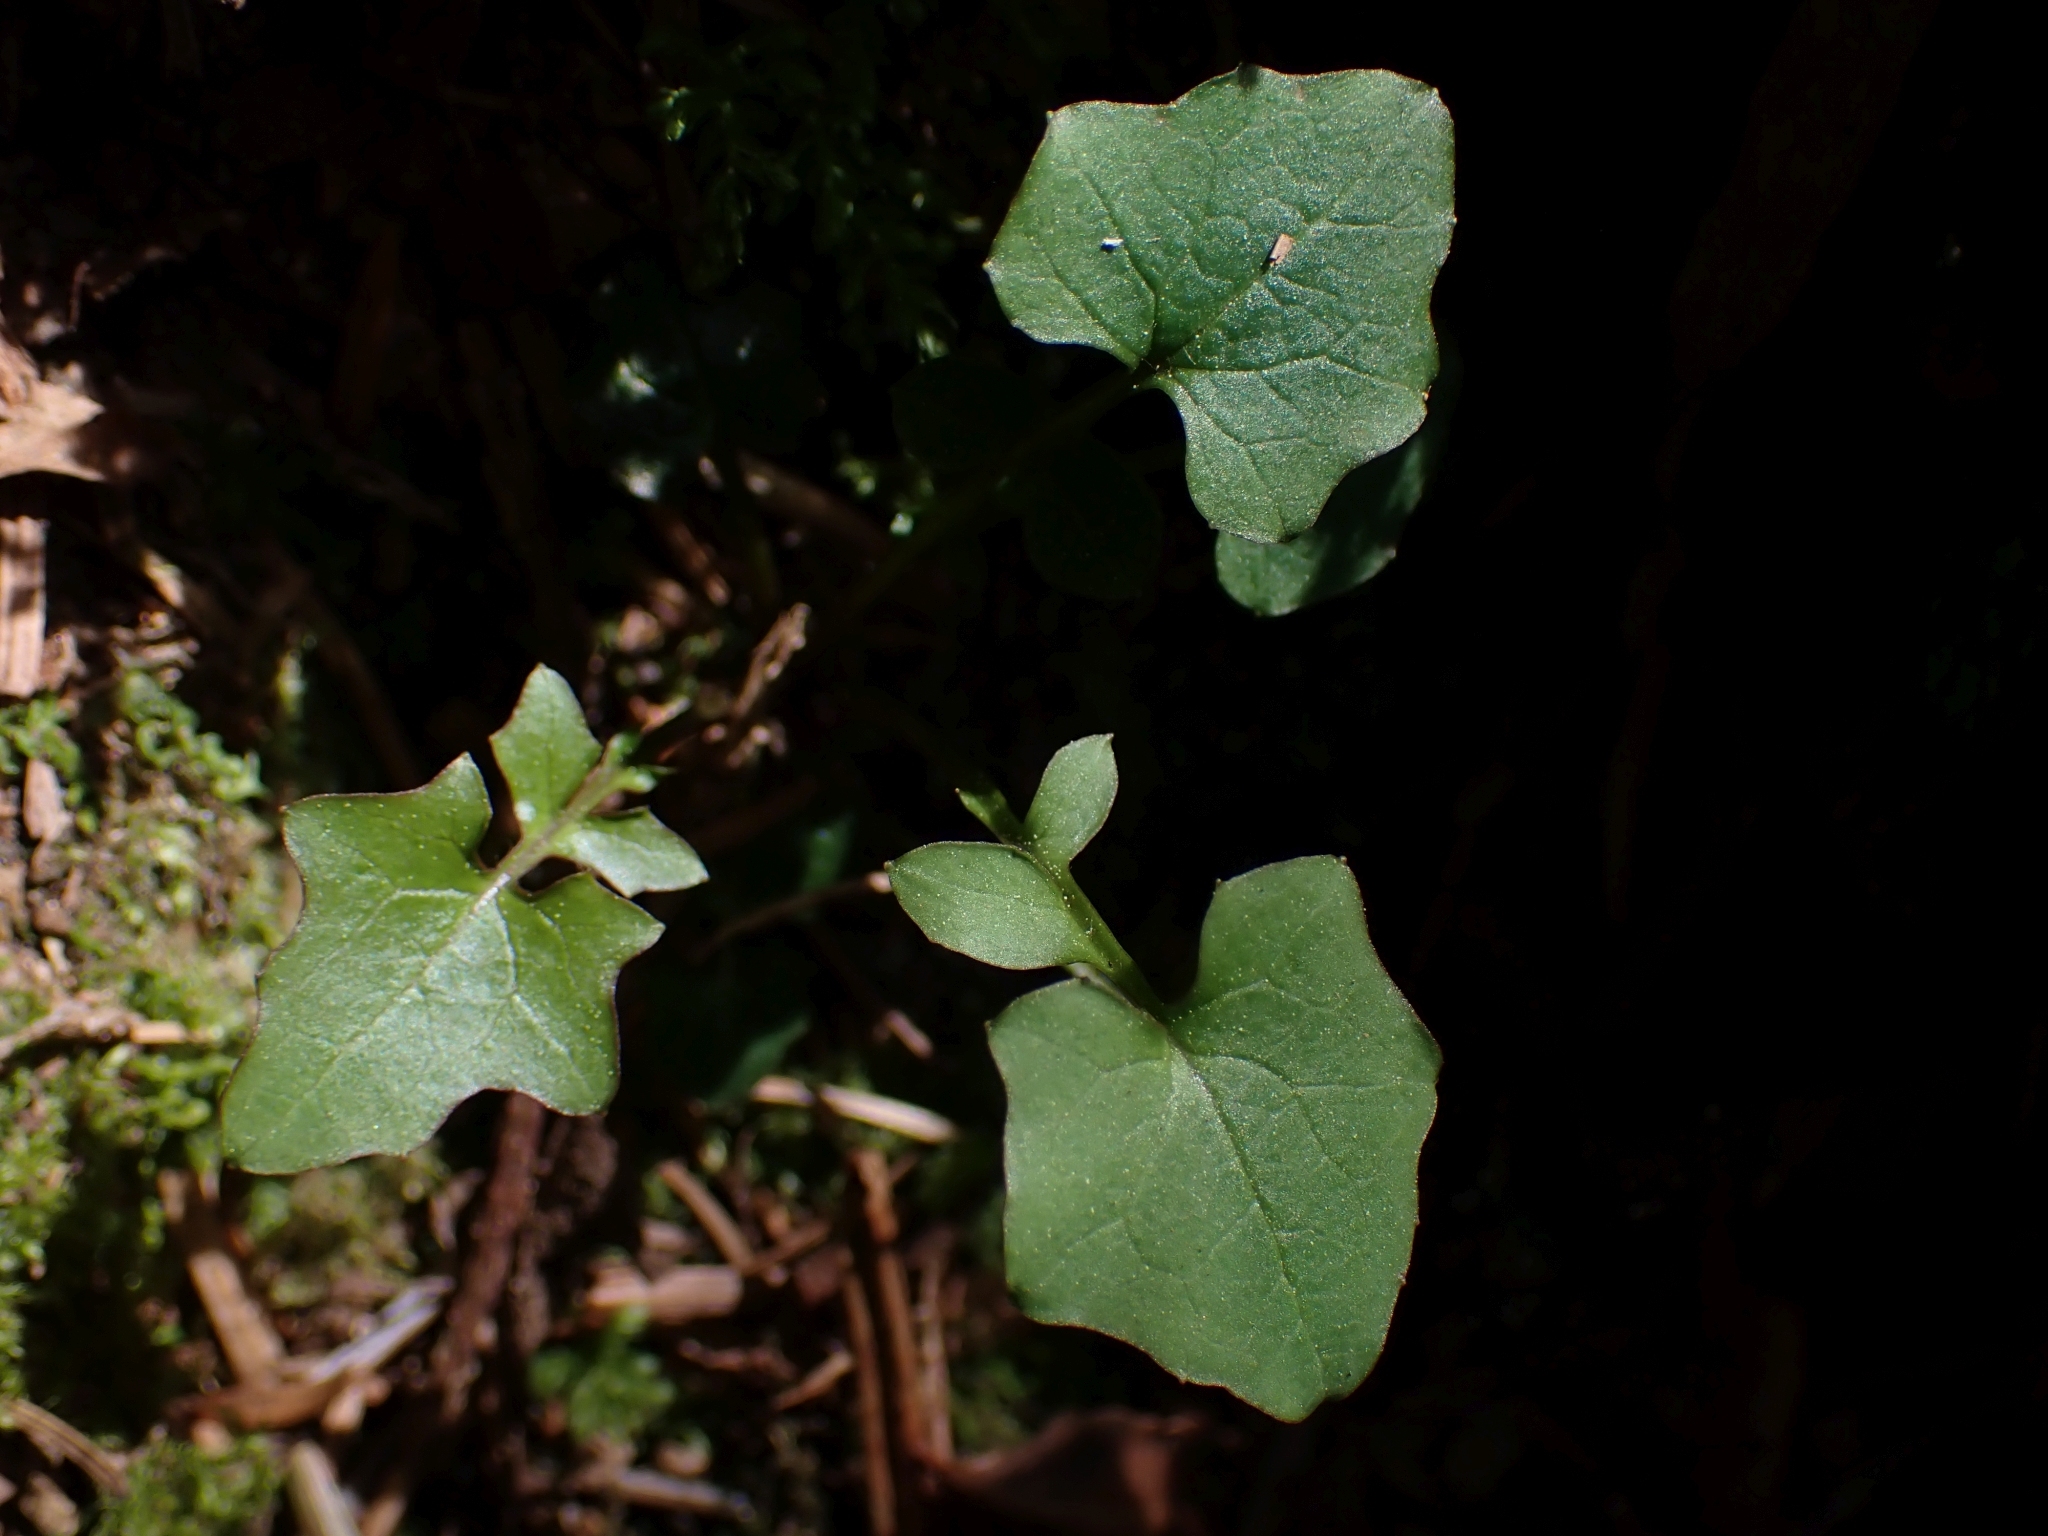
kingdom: Plantae
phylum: Tracheophyta
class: Magnoliopsida
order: Asterales
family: Asteraceae
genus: Mycelis
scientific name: Mycelis muralis
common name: Wall lettuce
